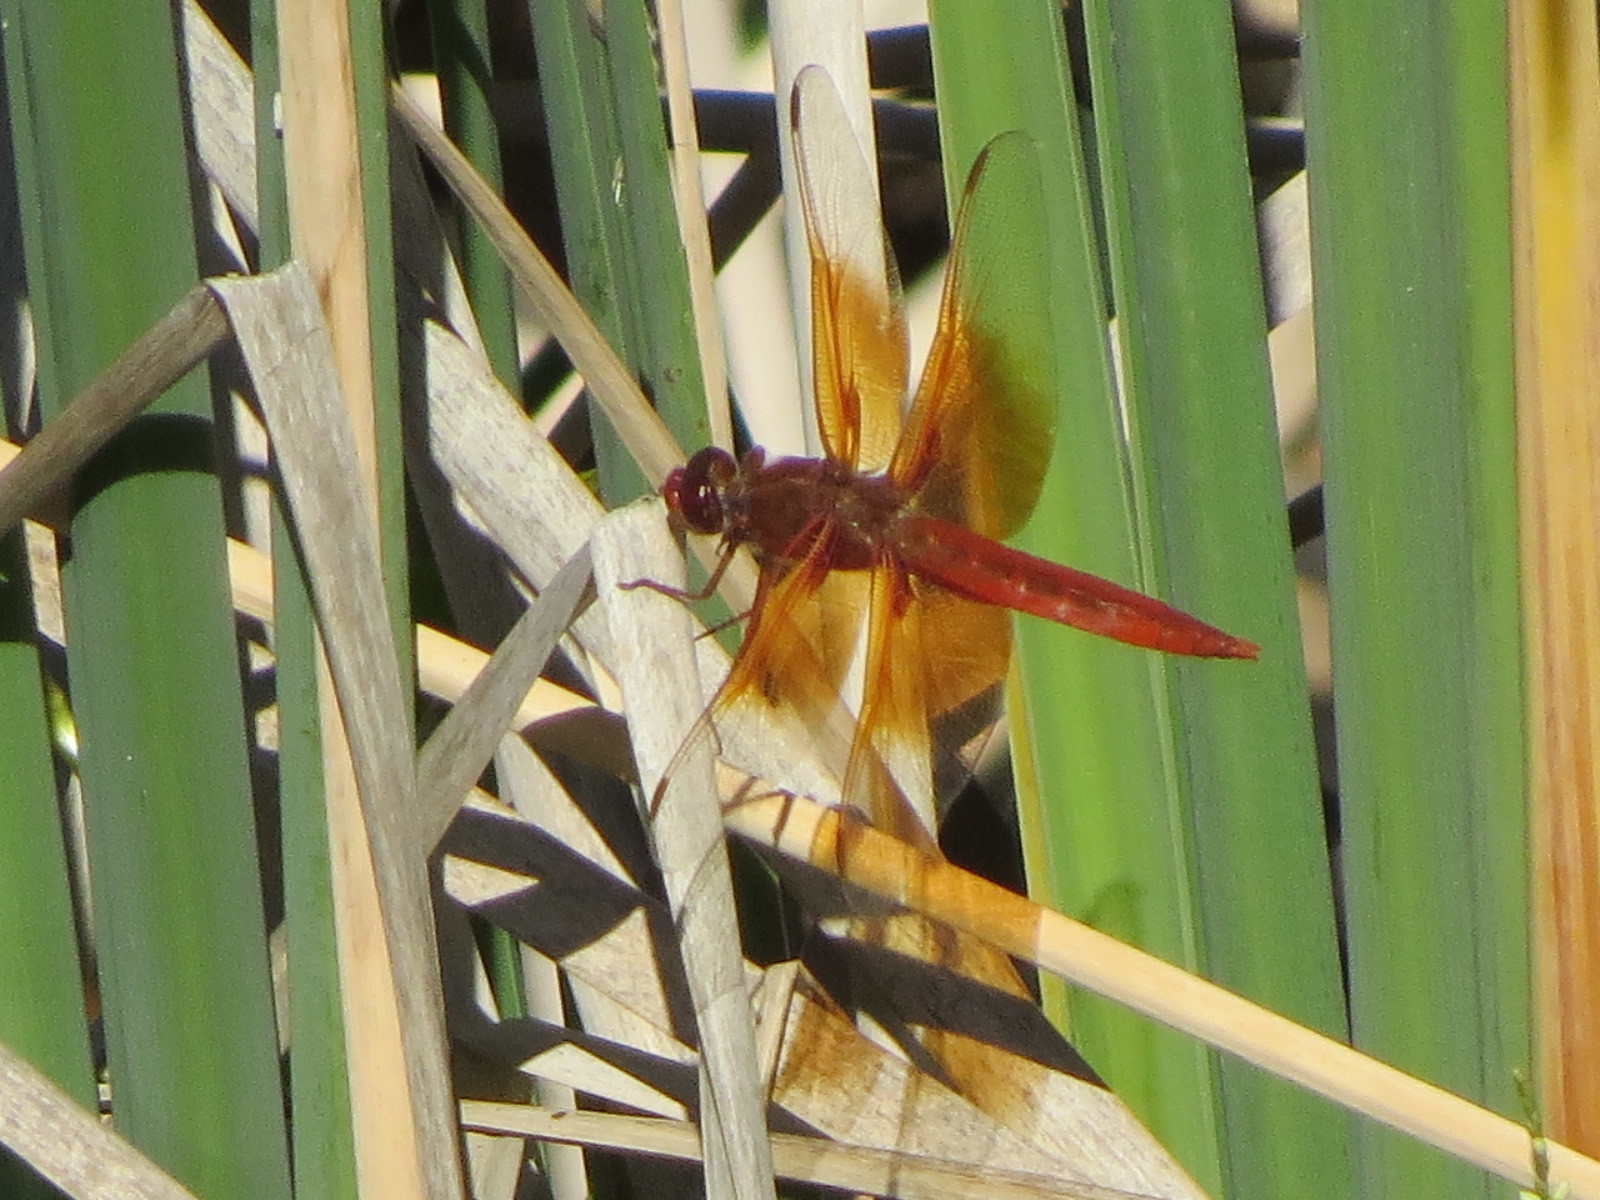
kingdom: Animalia
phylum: Arthropoda
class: Insecta
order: Odonata
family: Libellulidae
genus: Libellula
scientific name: Libellula saturata
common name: Flame skimmer
